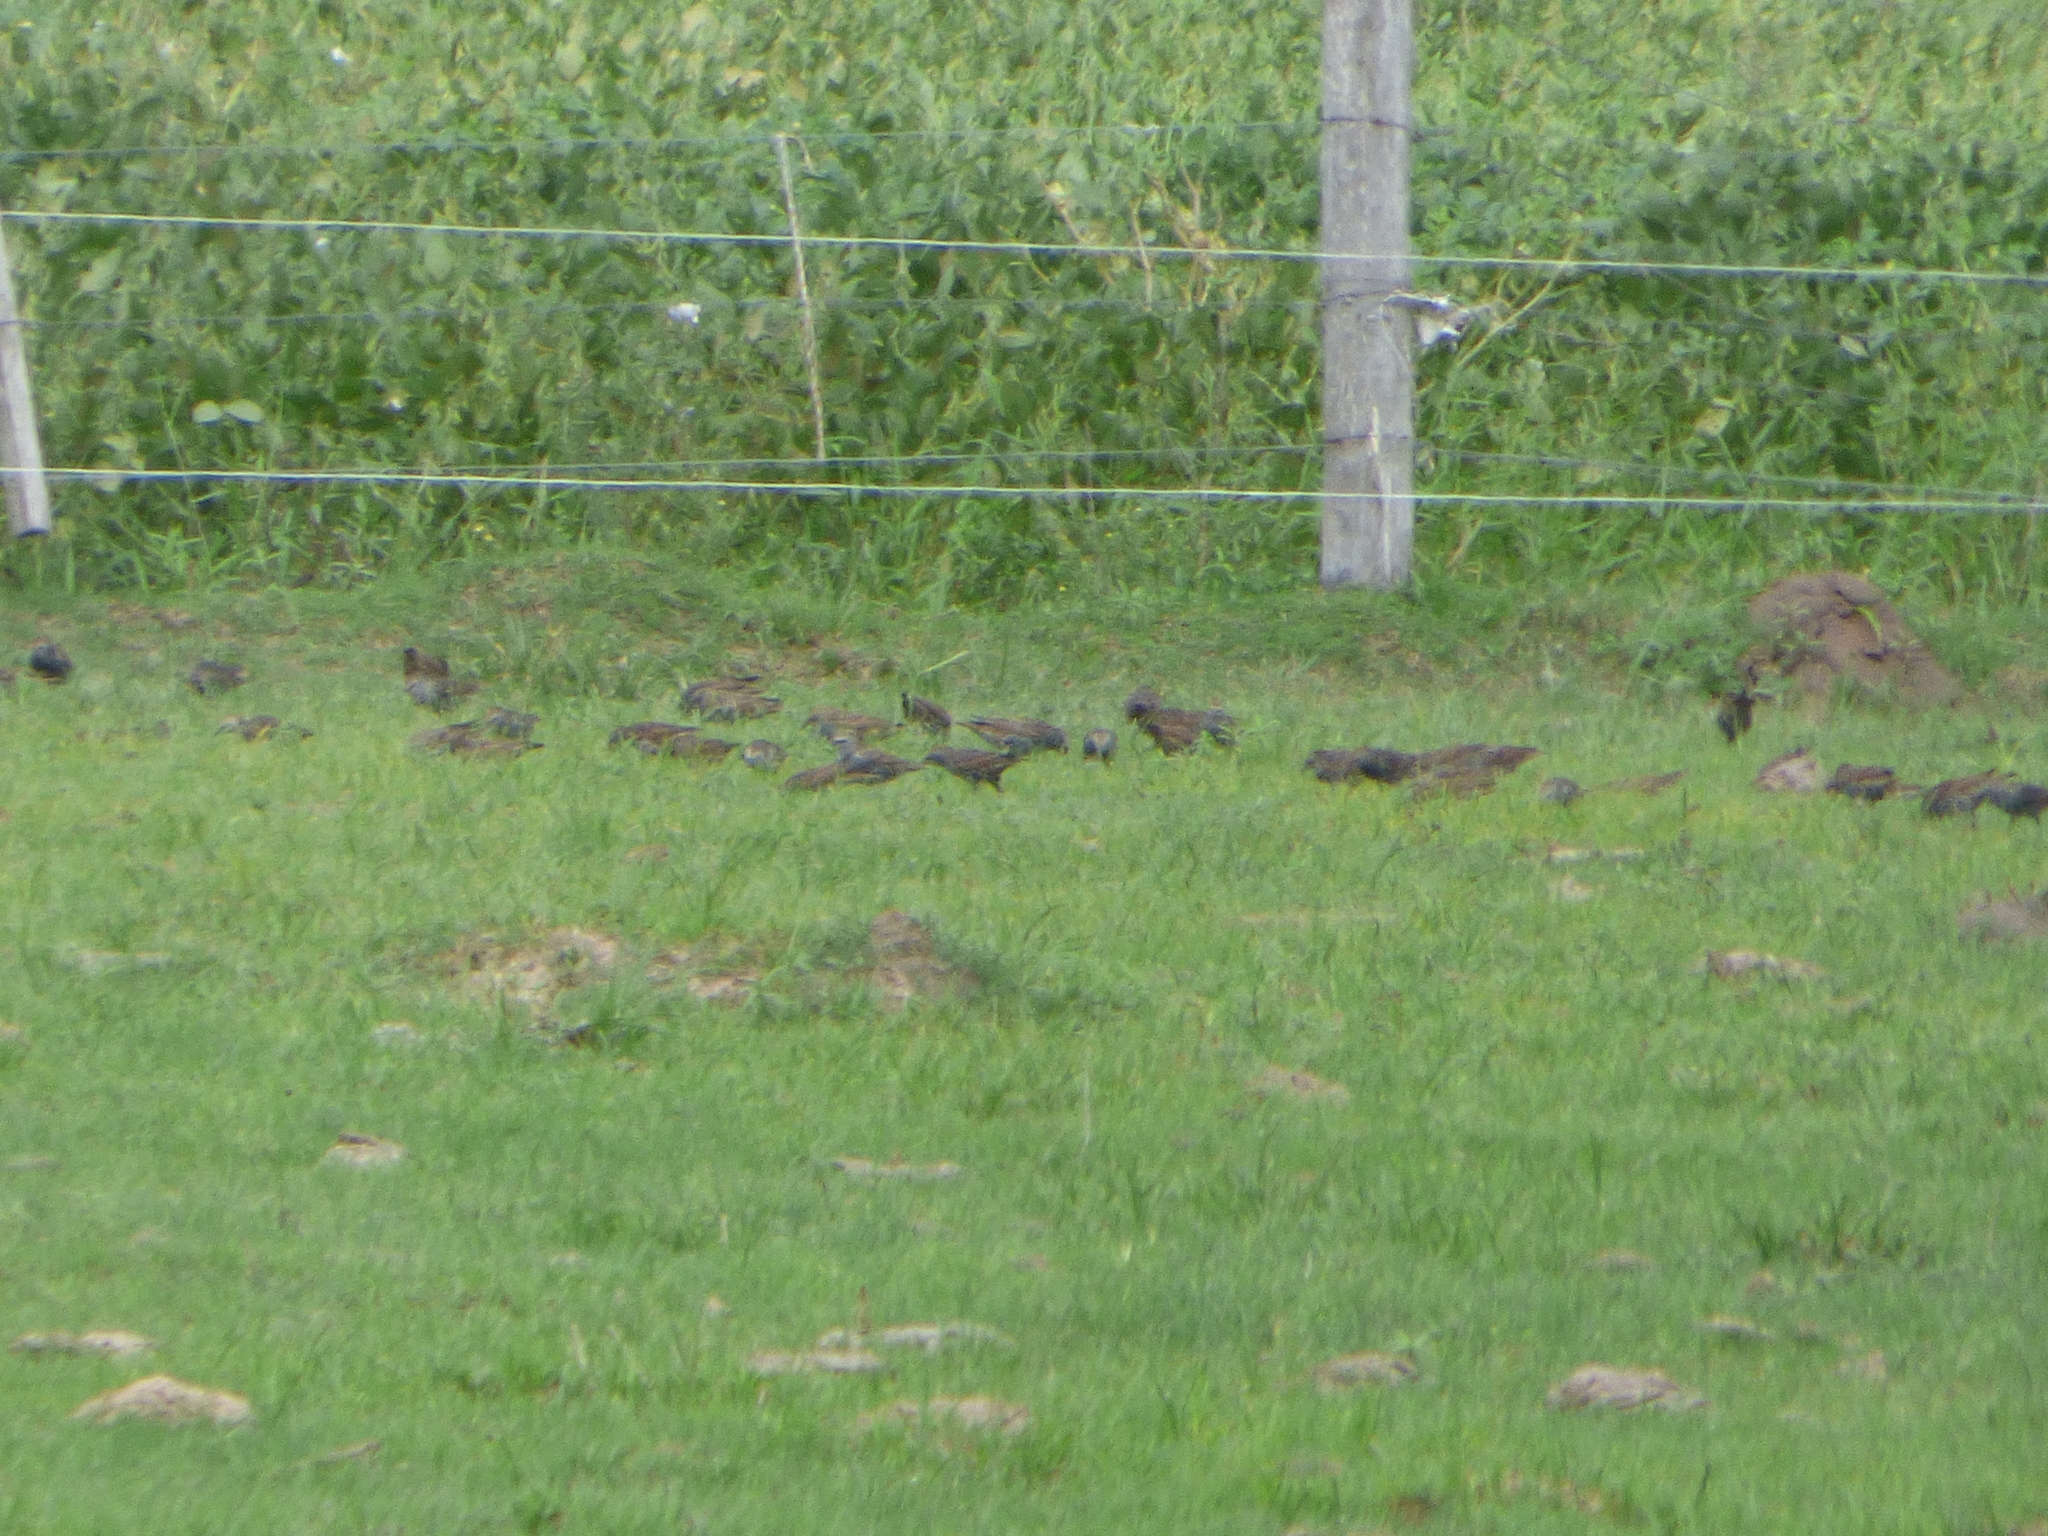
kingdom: Animalia
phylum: Chordata
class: Aves
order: Passeriformes
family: Sturnidae
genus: Sturnus
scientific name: Sturnus vulgaris
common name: Common starling
